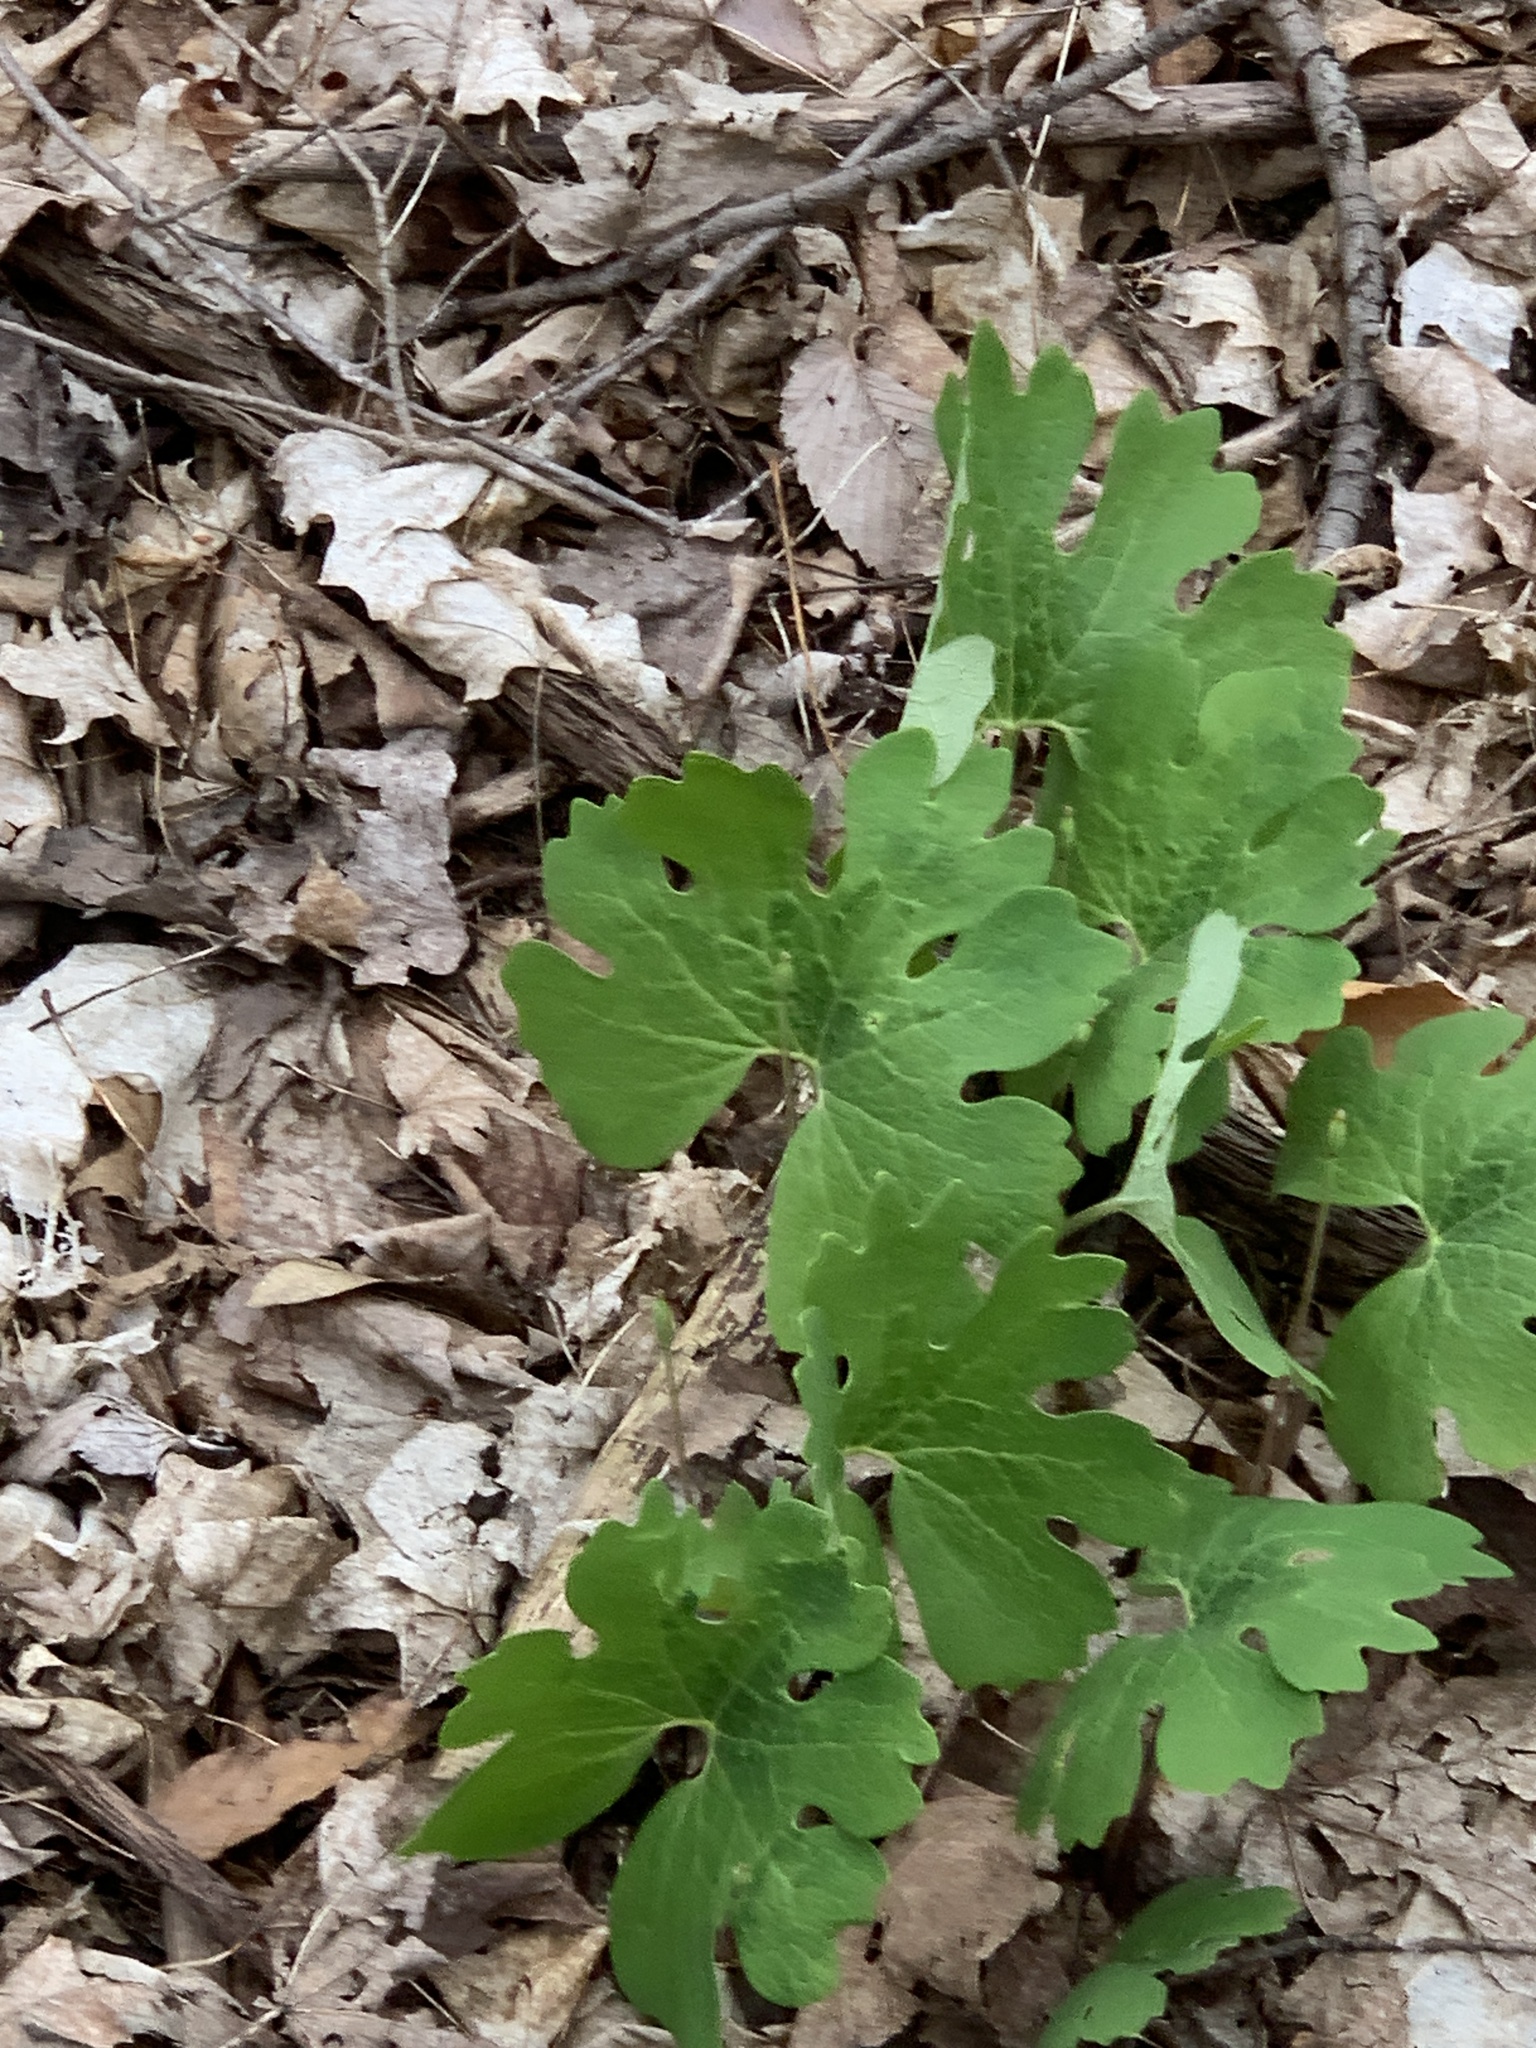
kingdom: Plantae
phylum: Tracheophyta
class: Magnoliopsida
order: Ranunculales
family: Papaveraceae
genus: Sanguinaria
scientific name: Sanguinaria canadensis
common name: Bloodroot
